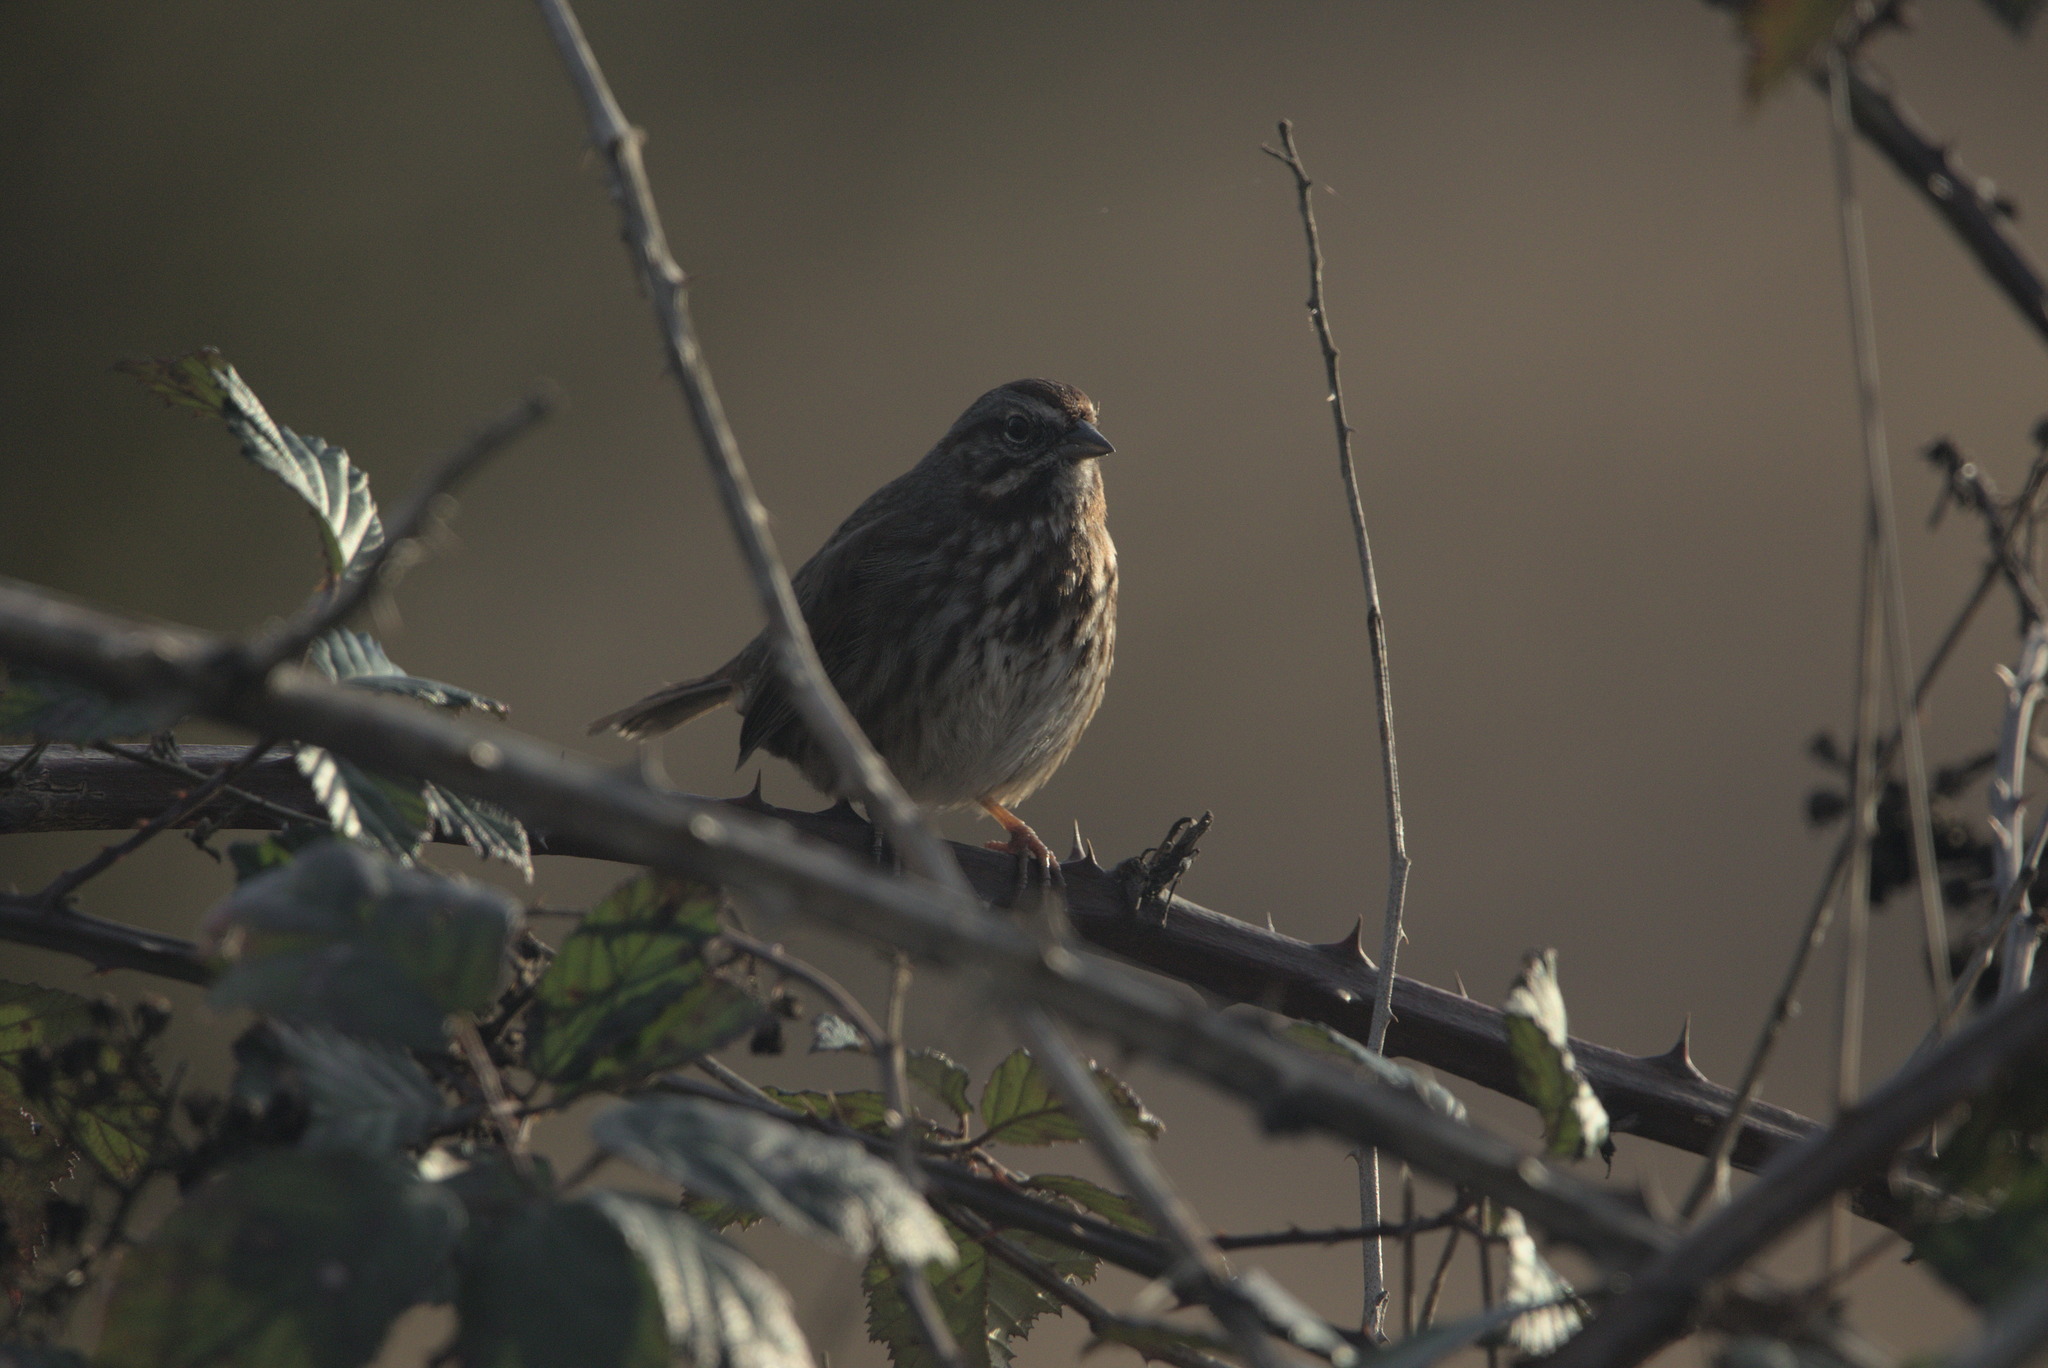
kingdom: Animalia
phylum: Chordata
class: Aves
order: Passeriformes
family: Passerellidae
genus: Melospiza
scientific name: Melospiza melodia
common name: Song sparrow
